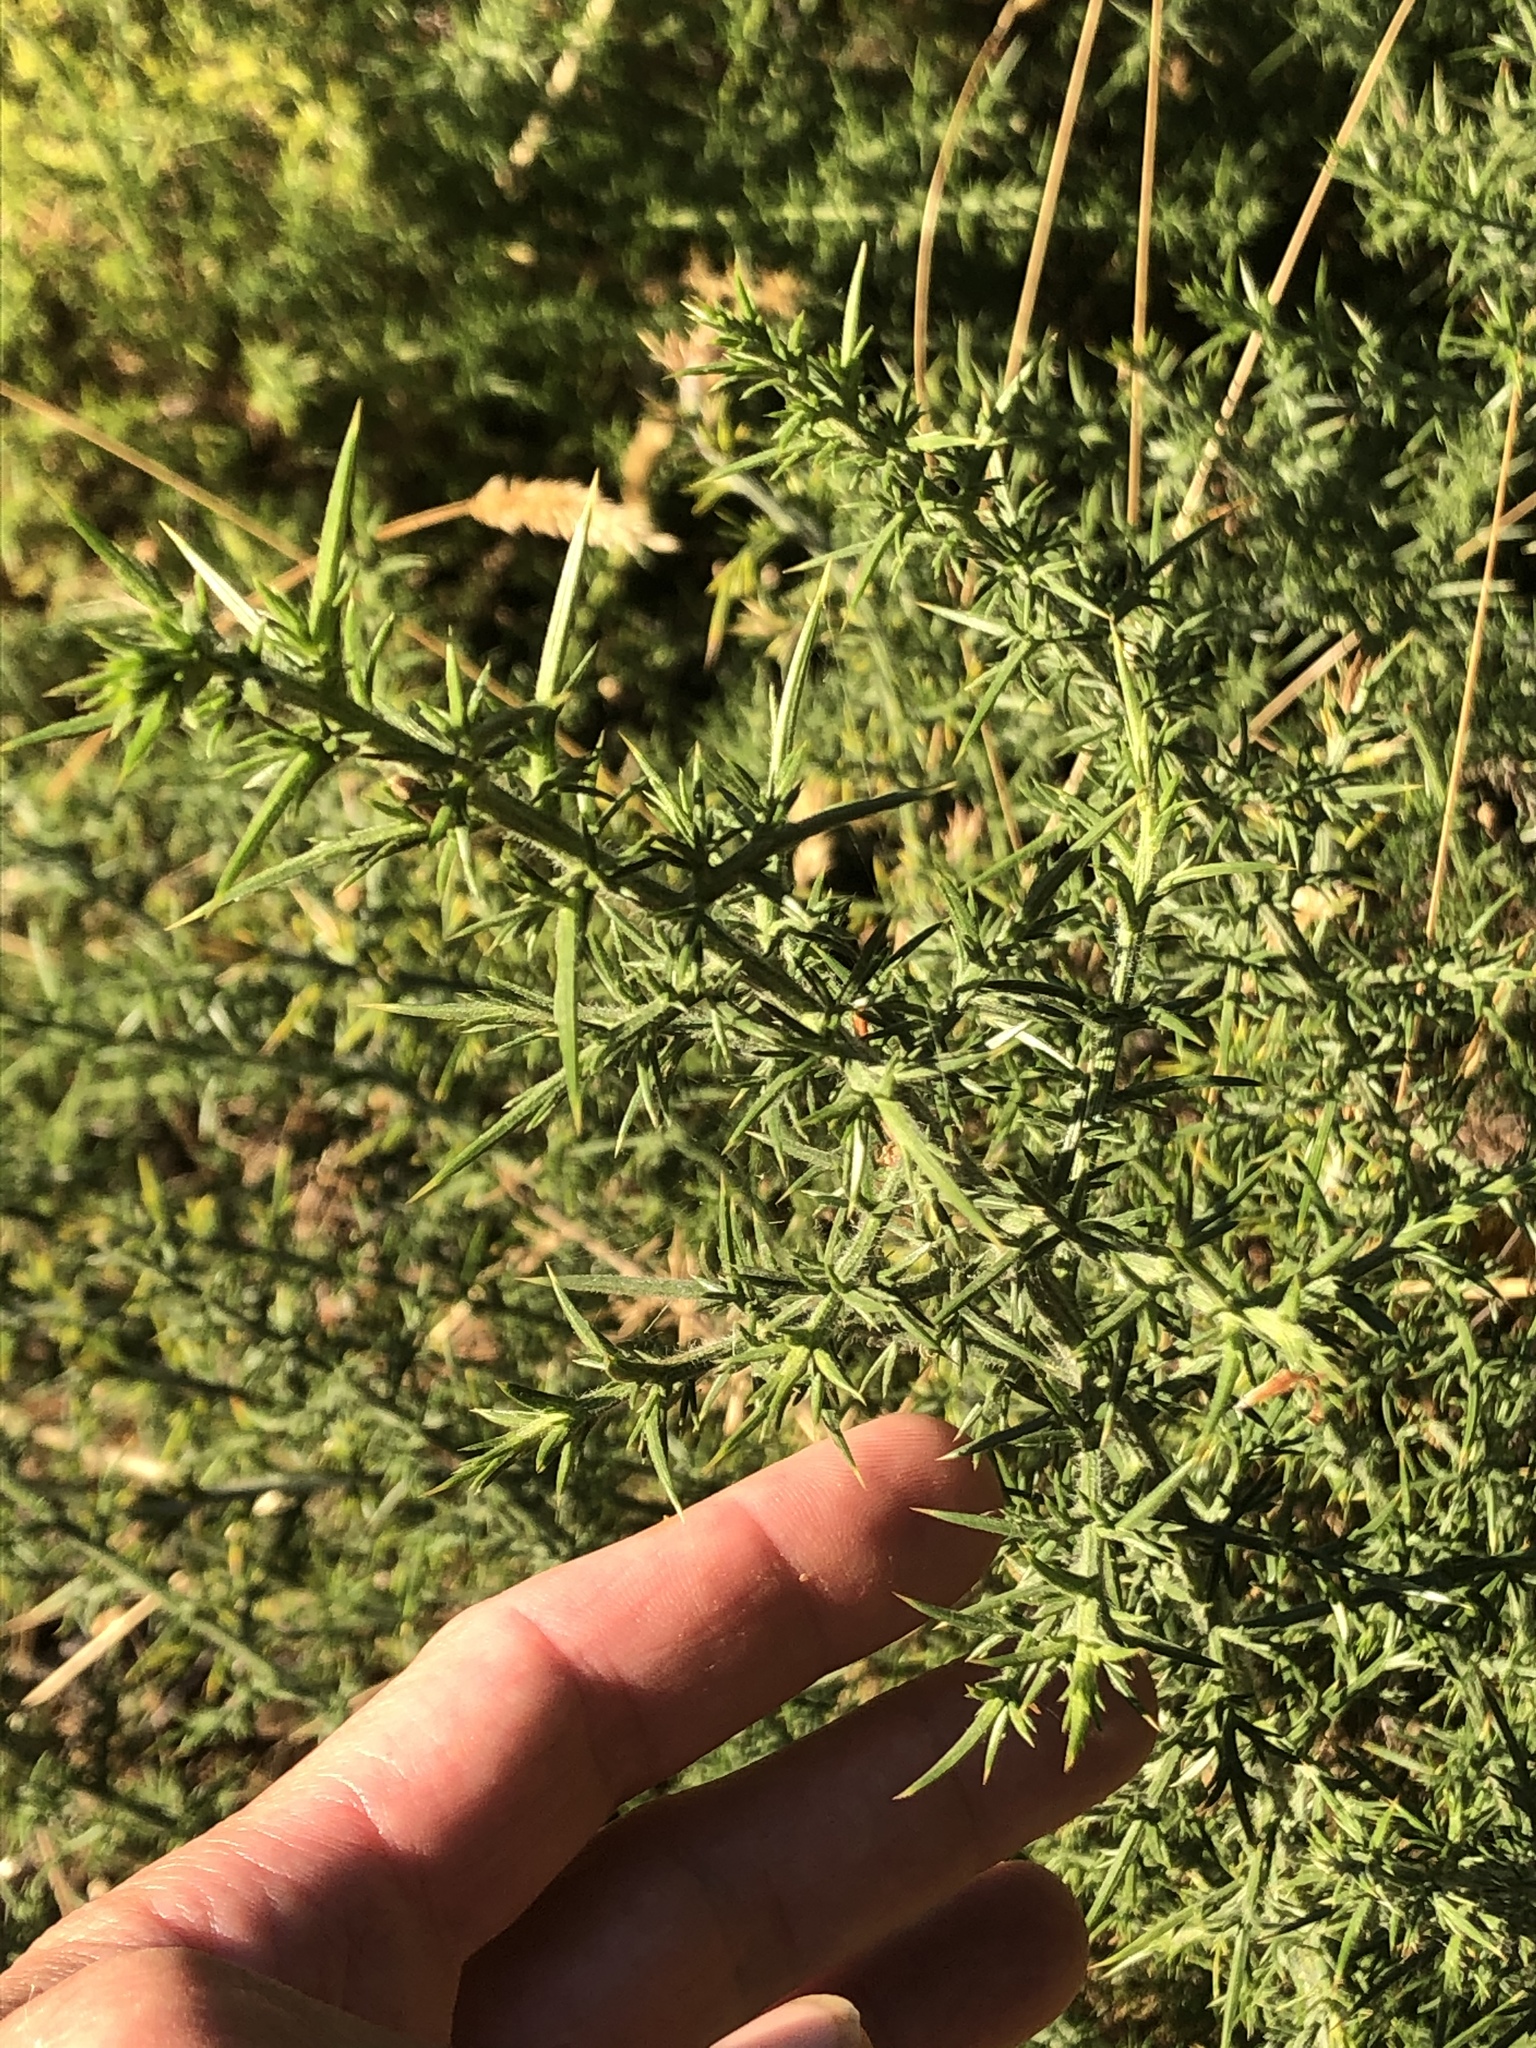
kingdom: Plantae
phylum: Tracheophyta
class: Magnoliopsida
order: Fabales
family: Fabaceae
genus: Ulex
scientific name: Ulex europaeus
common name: Common gorse
